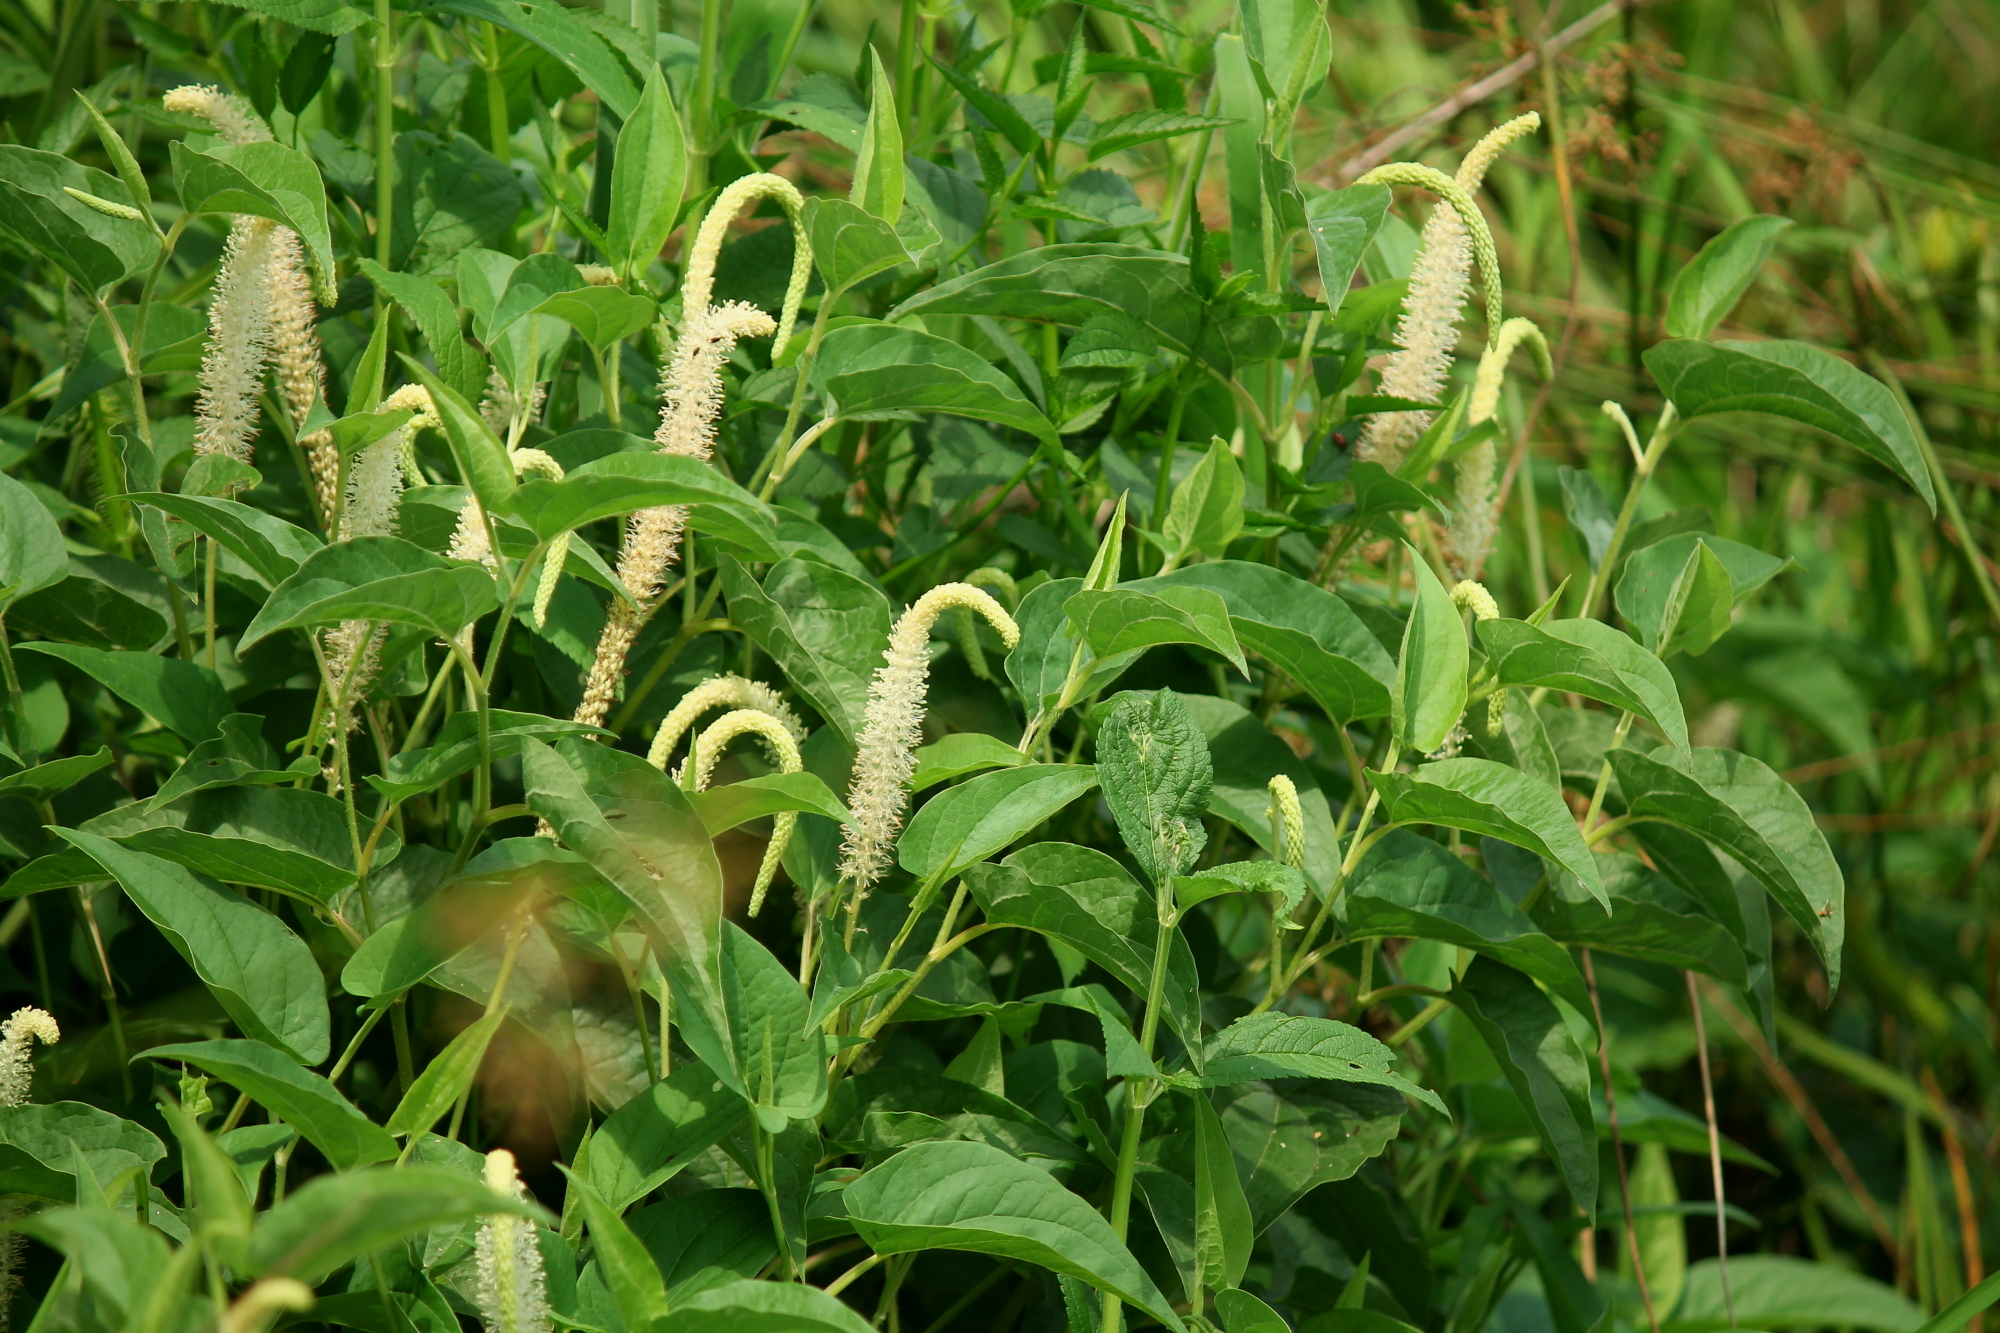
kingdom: Plantae
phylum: Tracheophyta
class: Magnoliopsida
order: Piperales
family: Saururaceae
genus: Saururus
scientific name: Saururus cernuus
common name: Lizard's-tail
